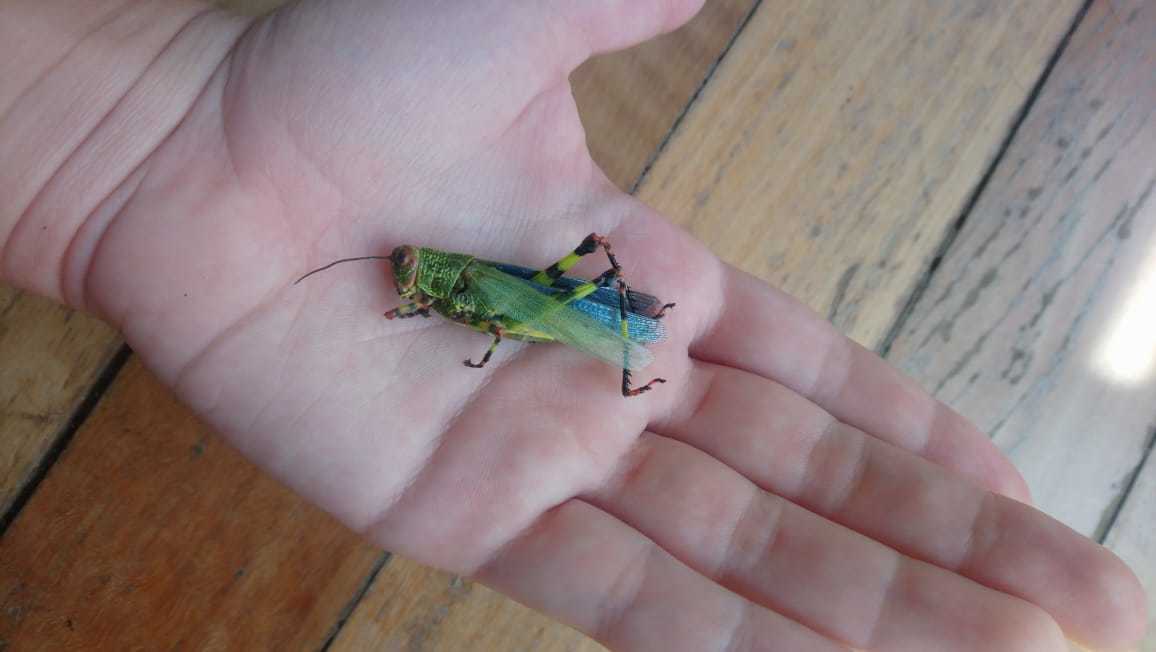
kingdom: Animalia
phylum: Arthropoda
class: Insecta
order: Orthoptera
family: Romaleidae
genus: Zoniopoda
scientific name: Zoniopoda tarsata
